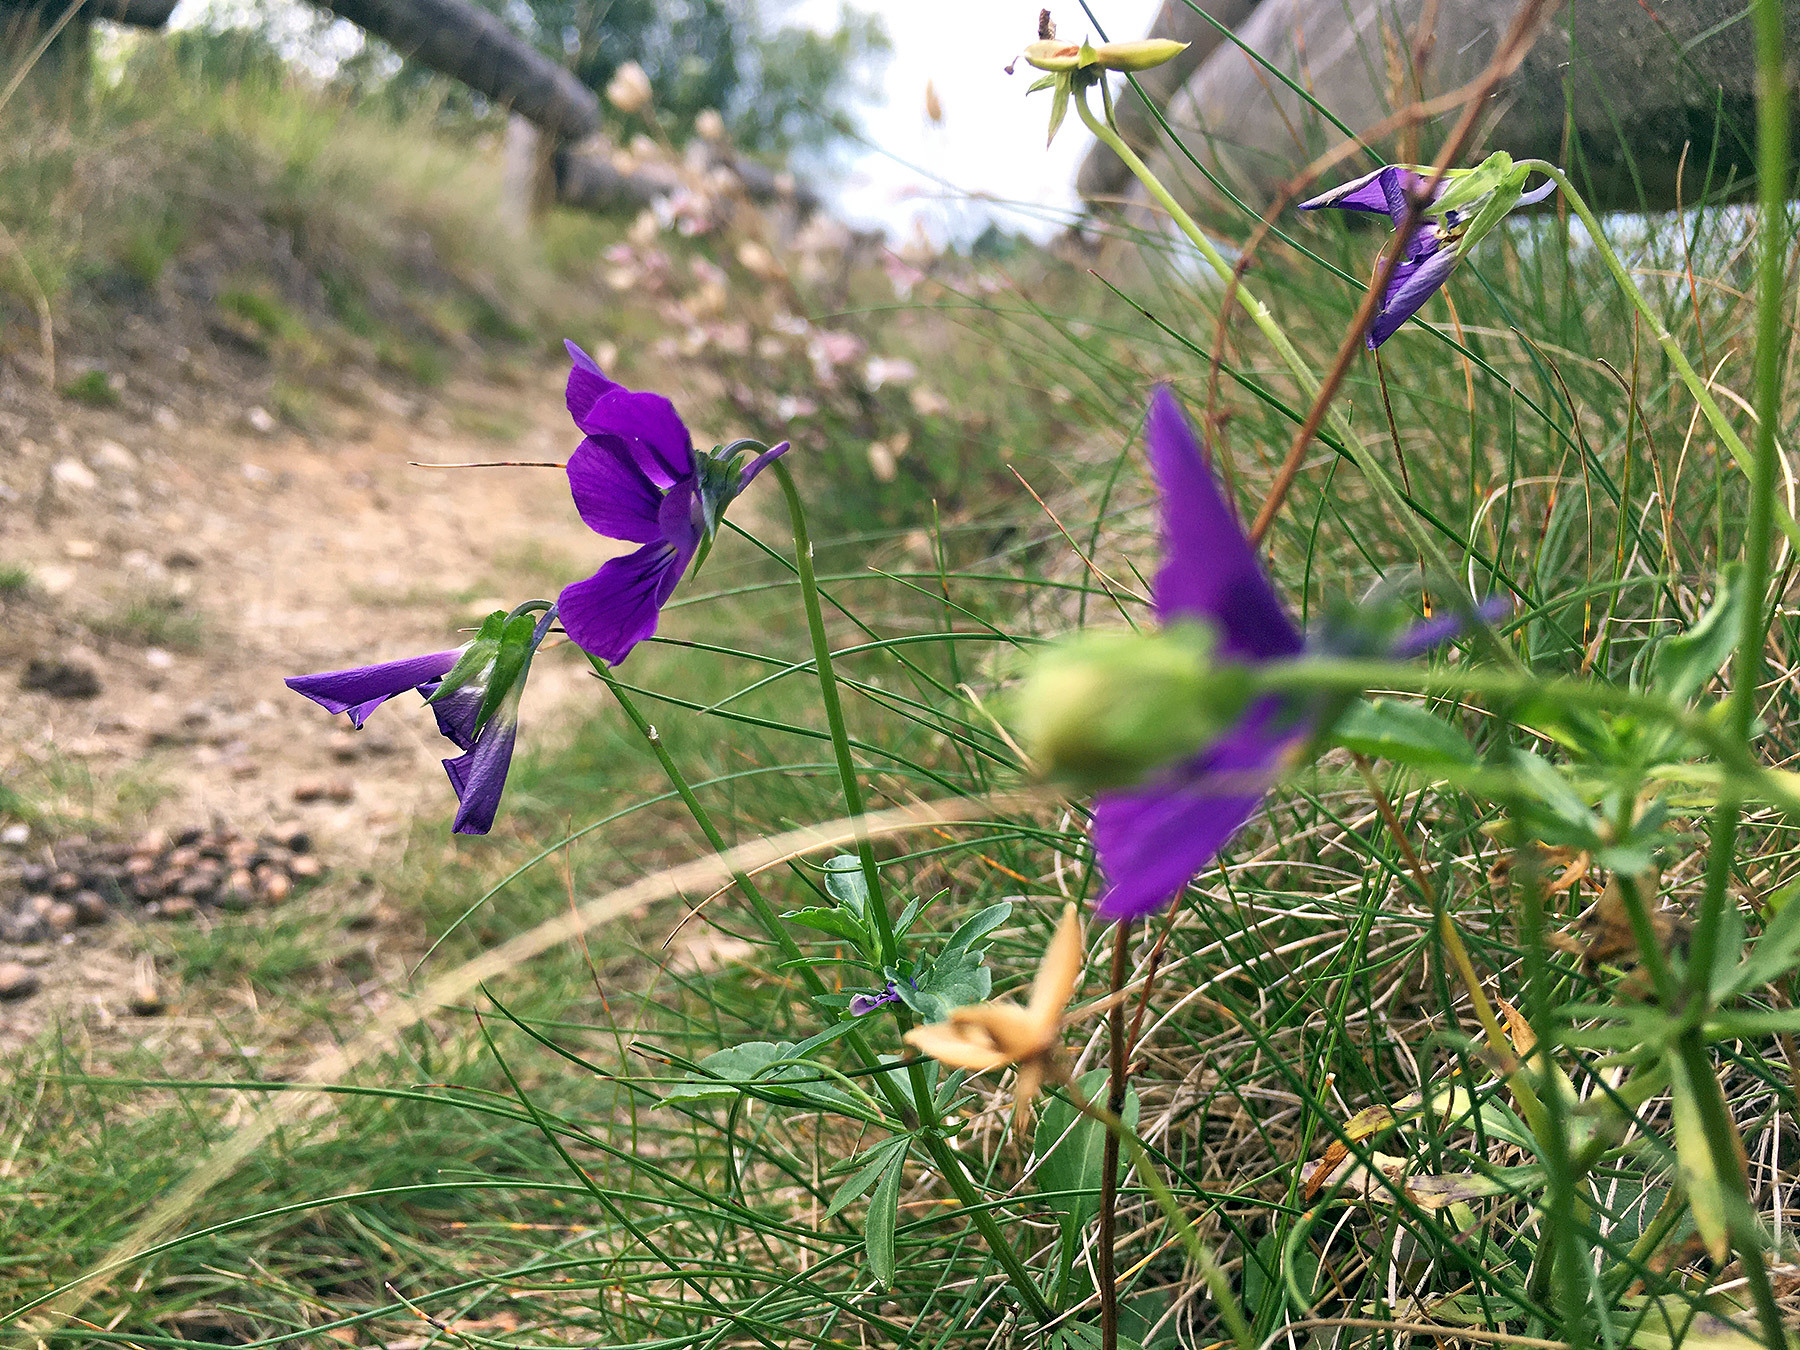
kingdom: Plantae
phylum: Tracheophyta
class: Magnoliopsida
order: Malpighiales
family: Violaceae
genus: Viola
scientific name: Viola lutea
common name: Mountain pansy
